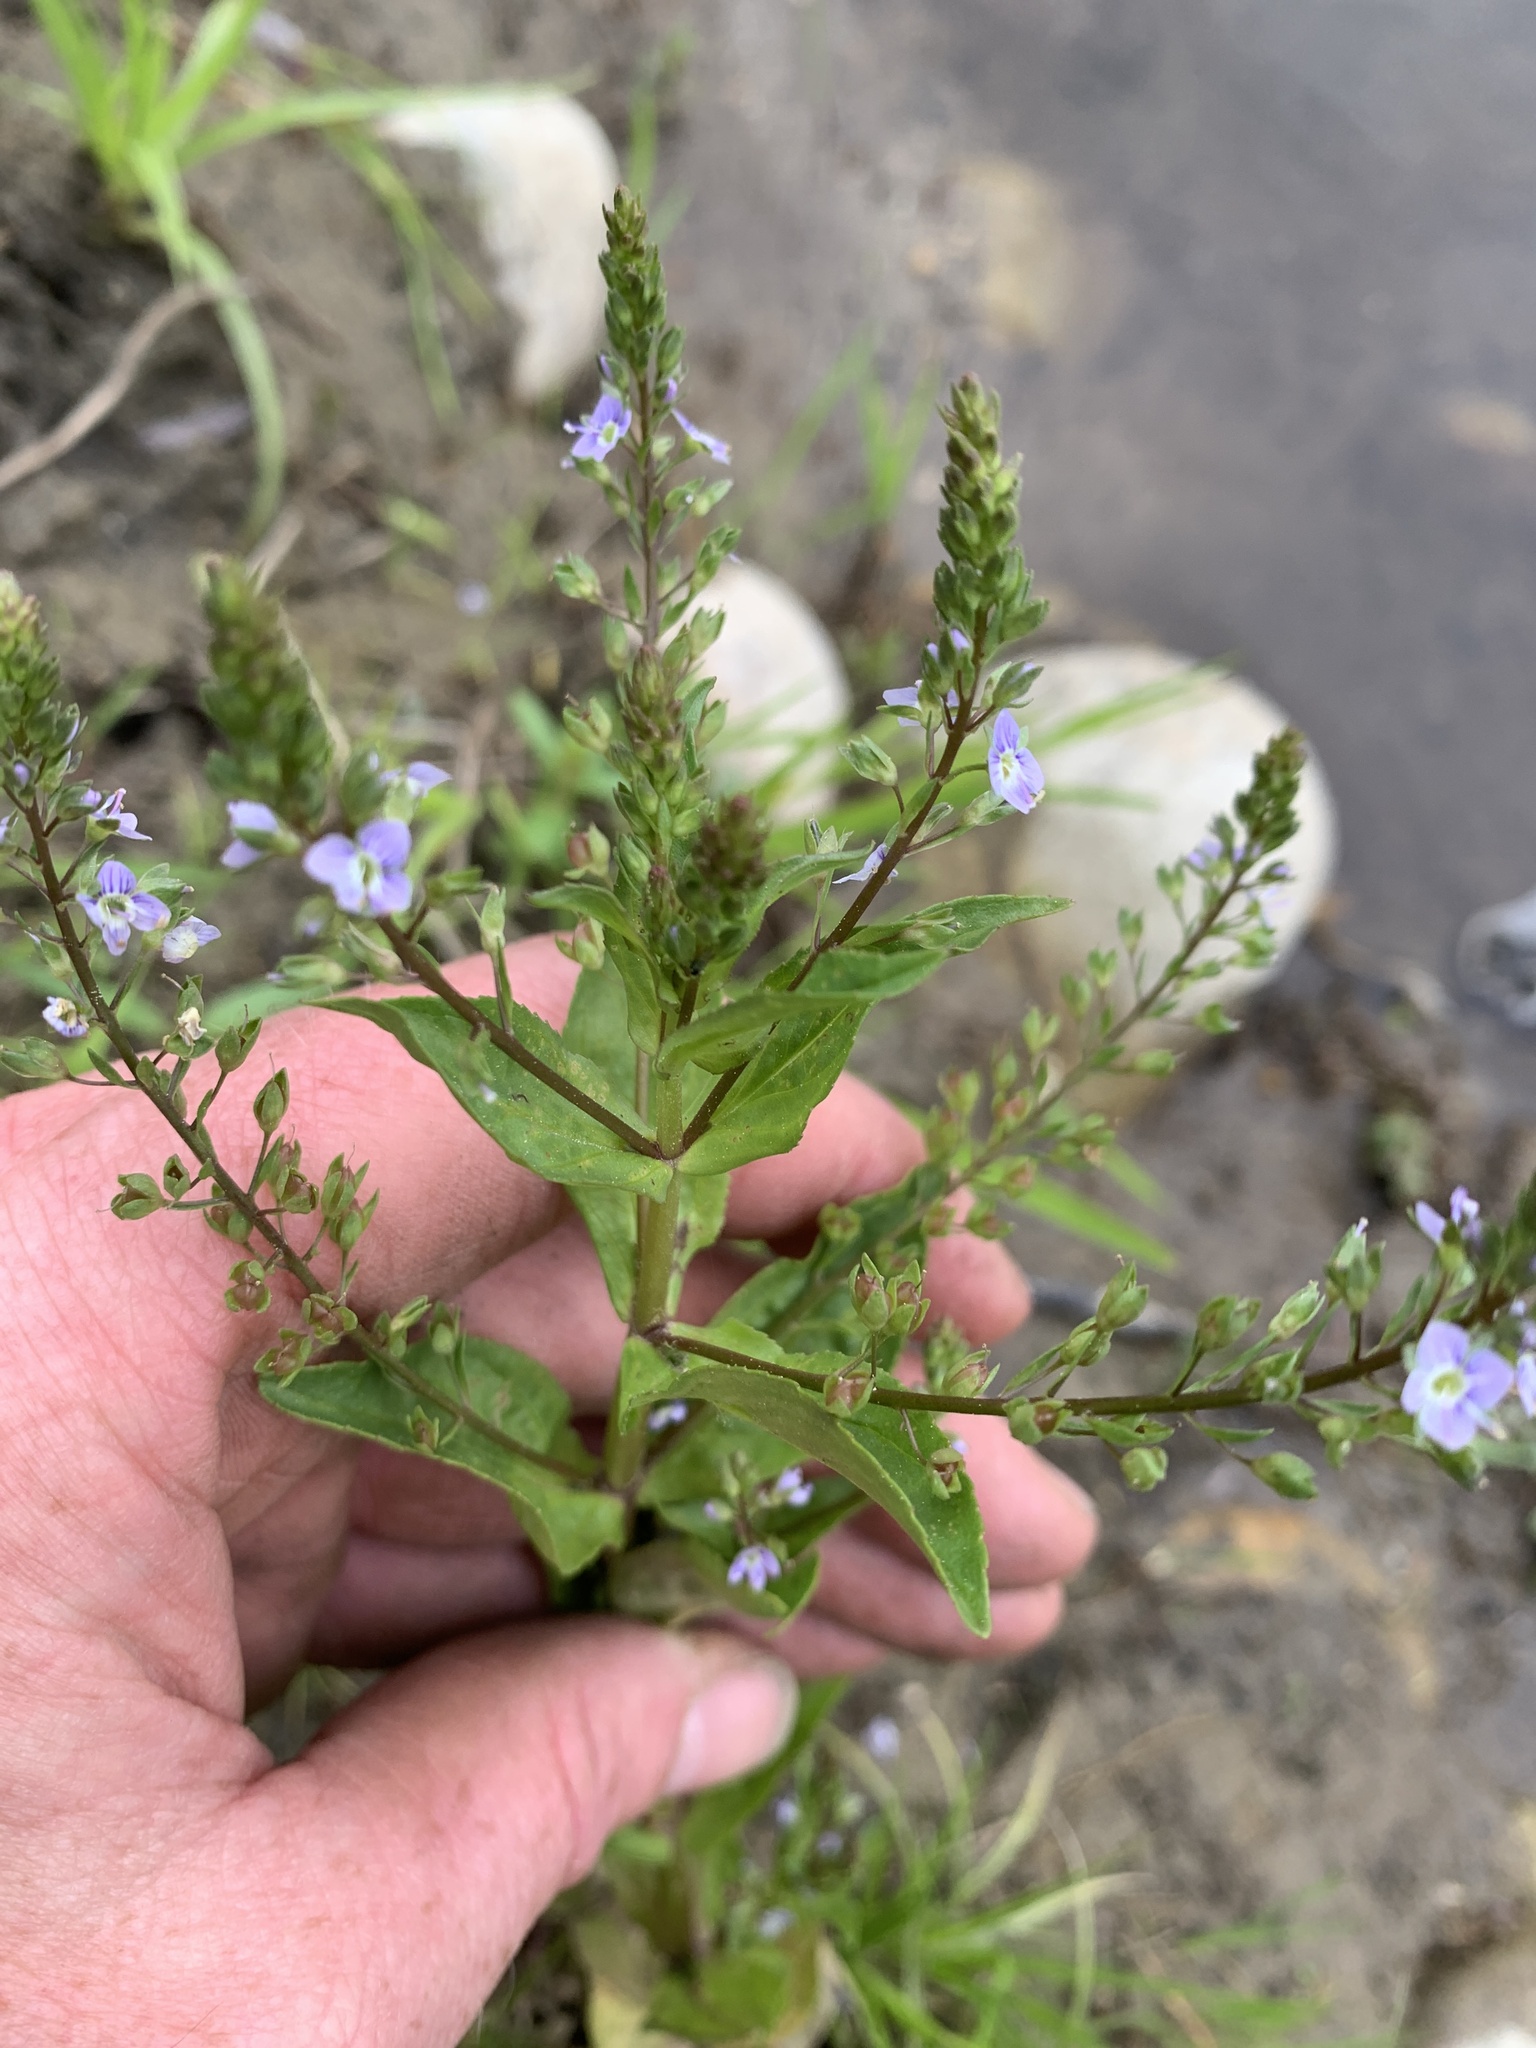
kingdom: Plantae
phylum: Tracheophyta
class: Magnoliopsida
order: Lamiales
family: Plantaginaceae
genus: Veronica
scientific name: Veronica anagallis-aquatica
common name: Water speedwell
